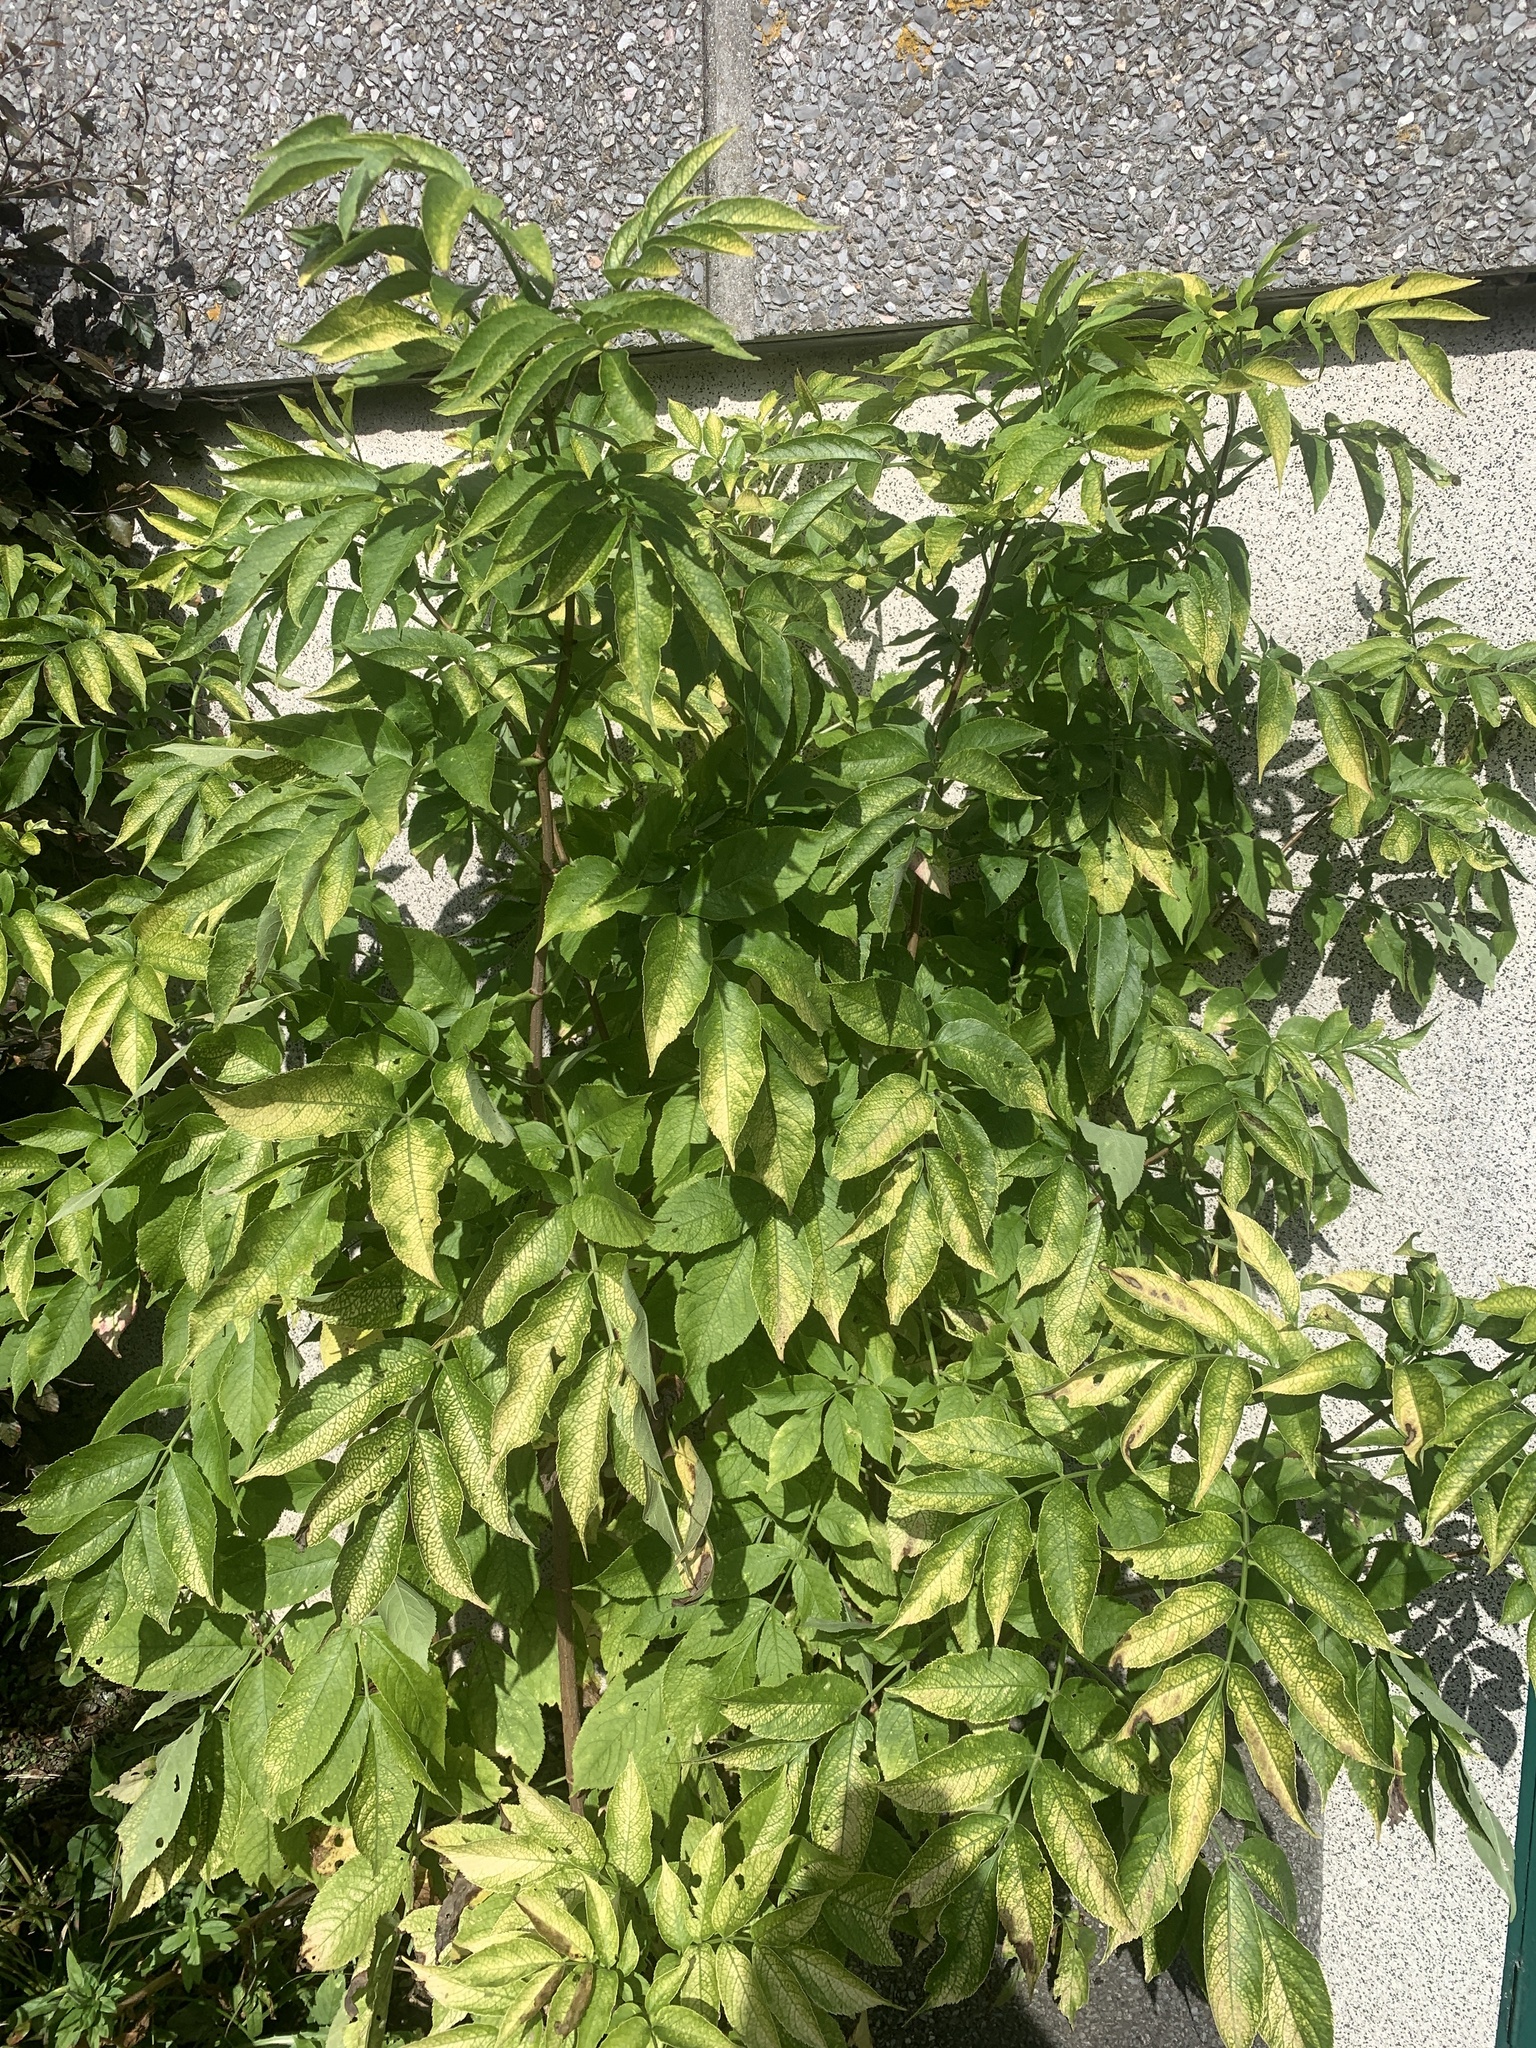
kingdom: Plantae
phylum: Tracheophyta
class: Magnoliopsida
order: Dipsacales
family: Viburnaceae
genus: Sambucus
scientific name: Sambucus nigra
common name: Elder
